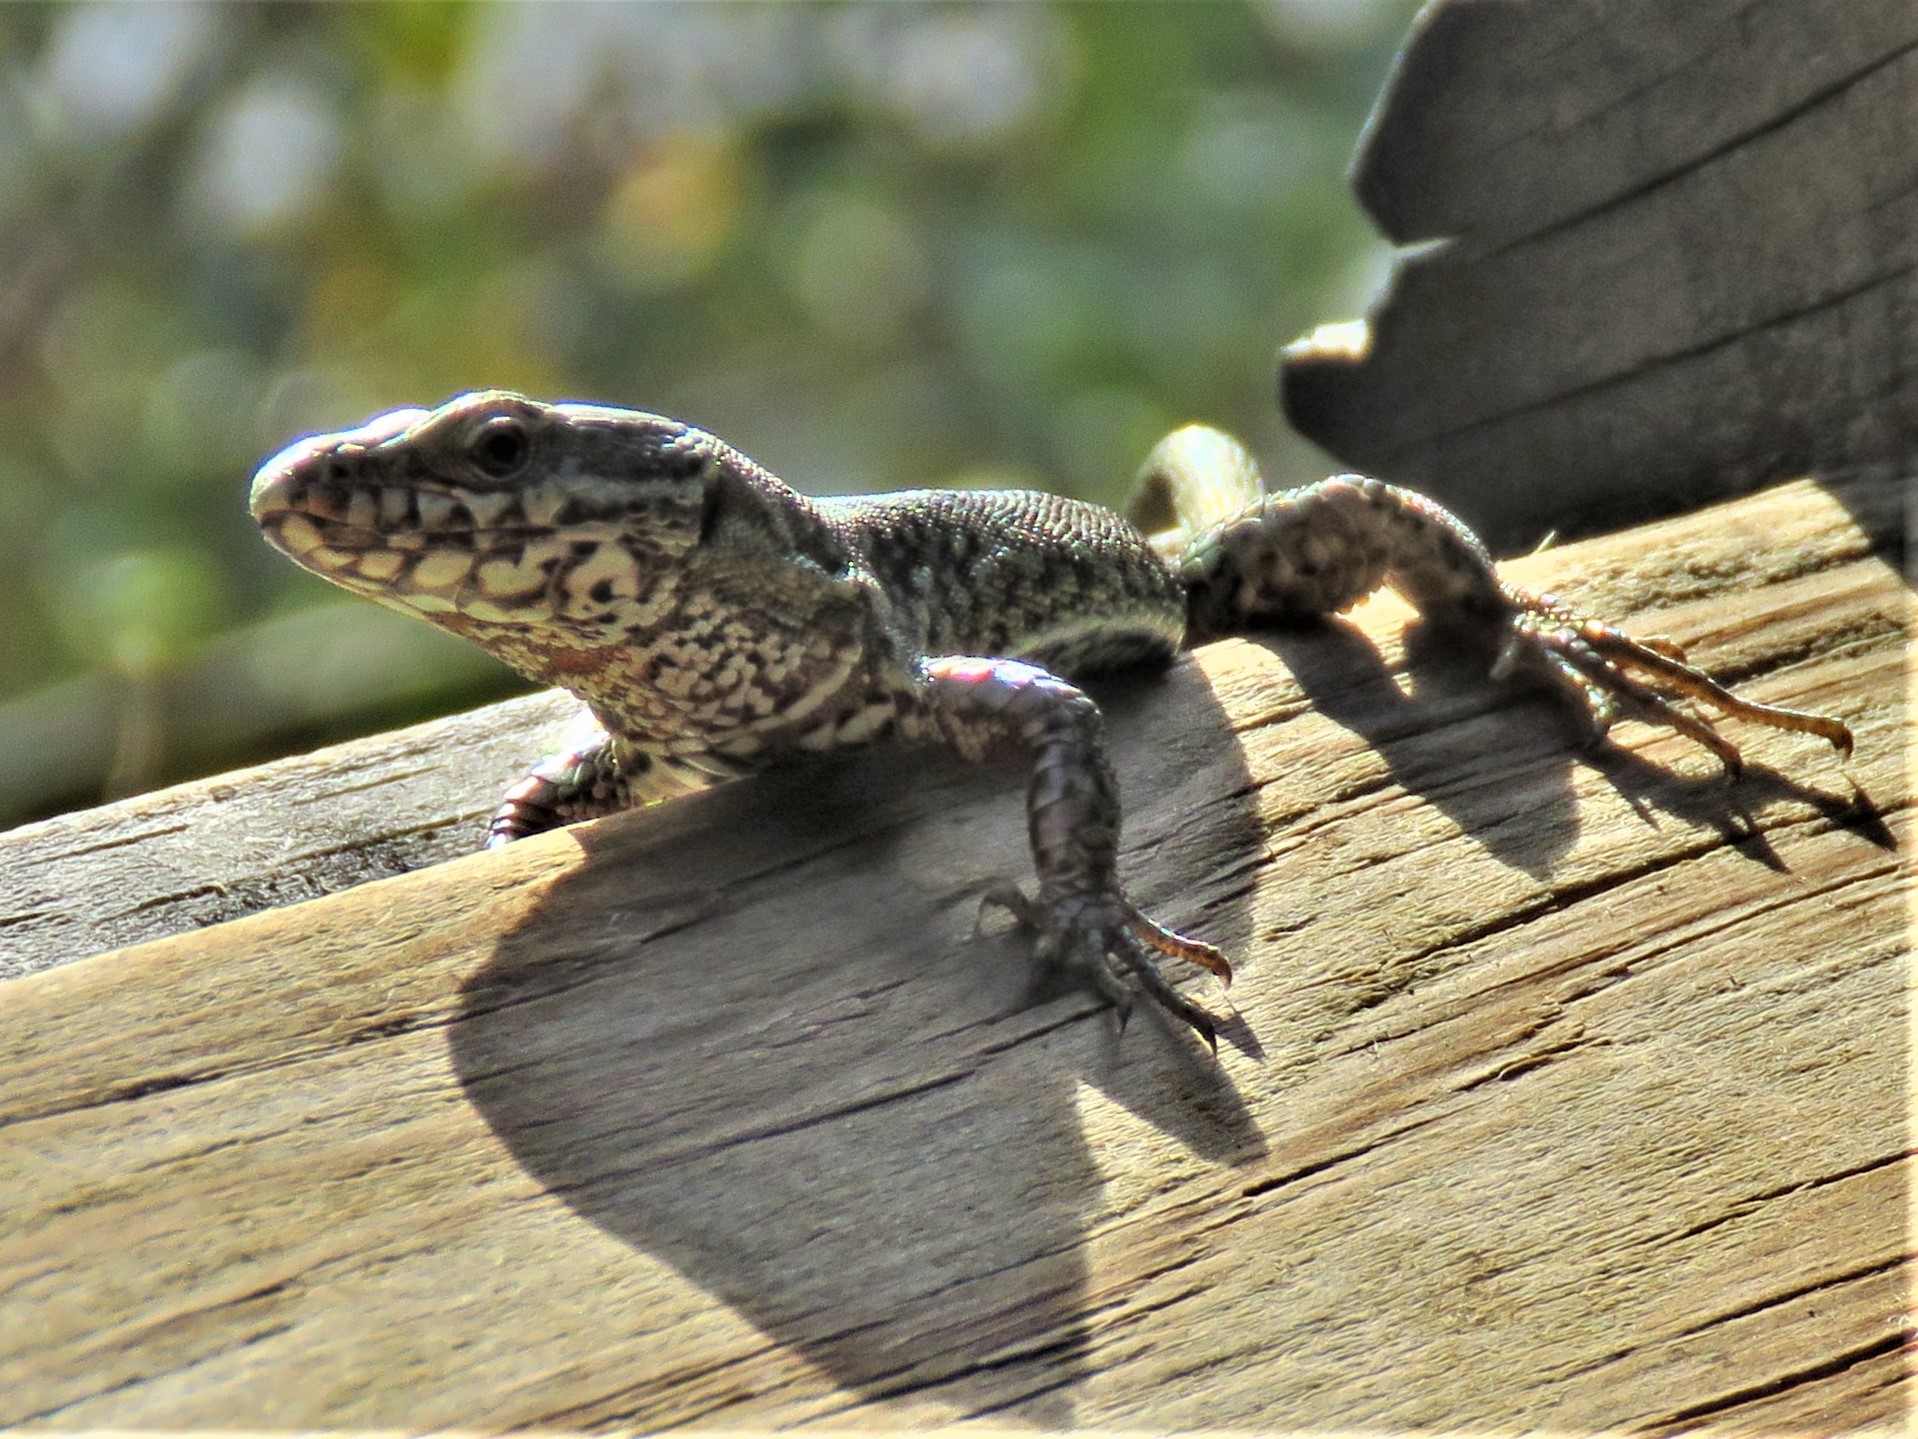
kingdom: Animalia
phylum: Chordata
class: Squamata
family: Lacertidae
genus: Podarcis
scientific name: Podarcis muralis
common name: Common wall lizard
